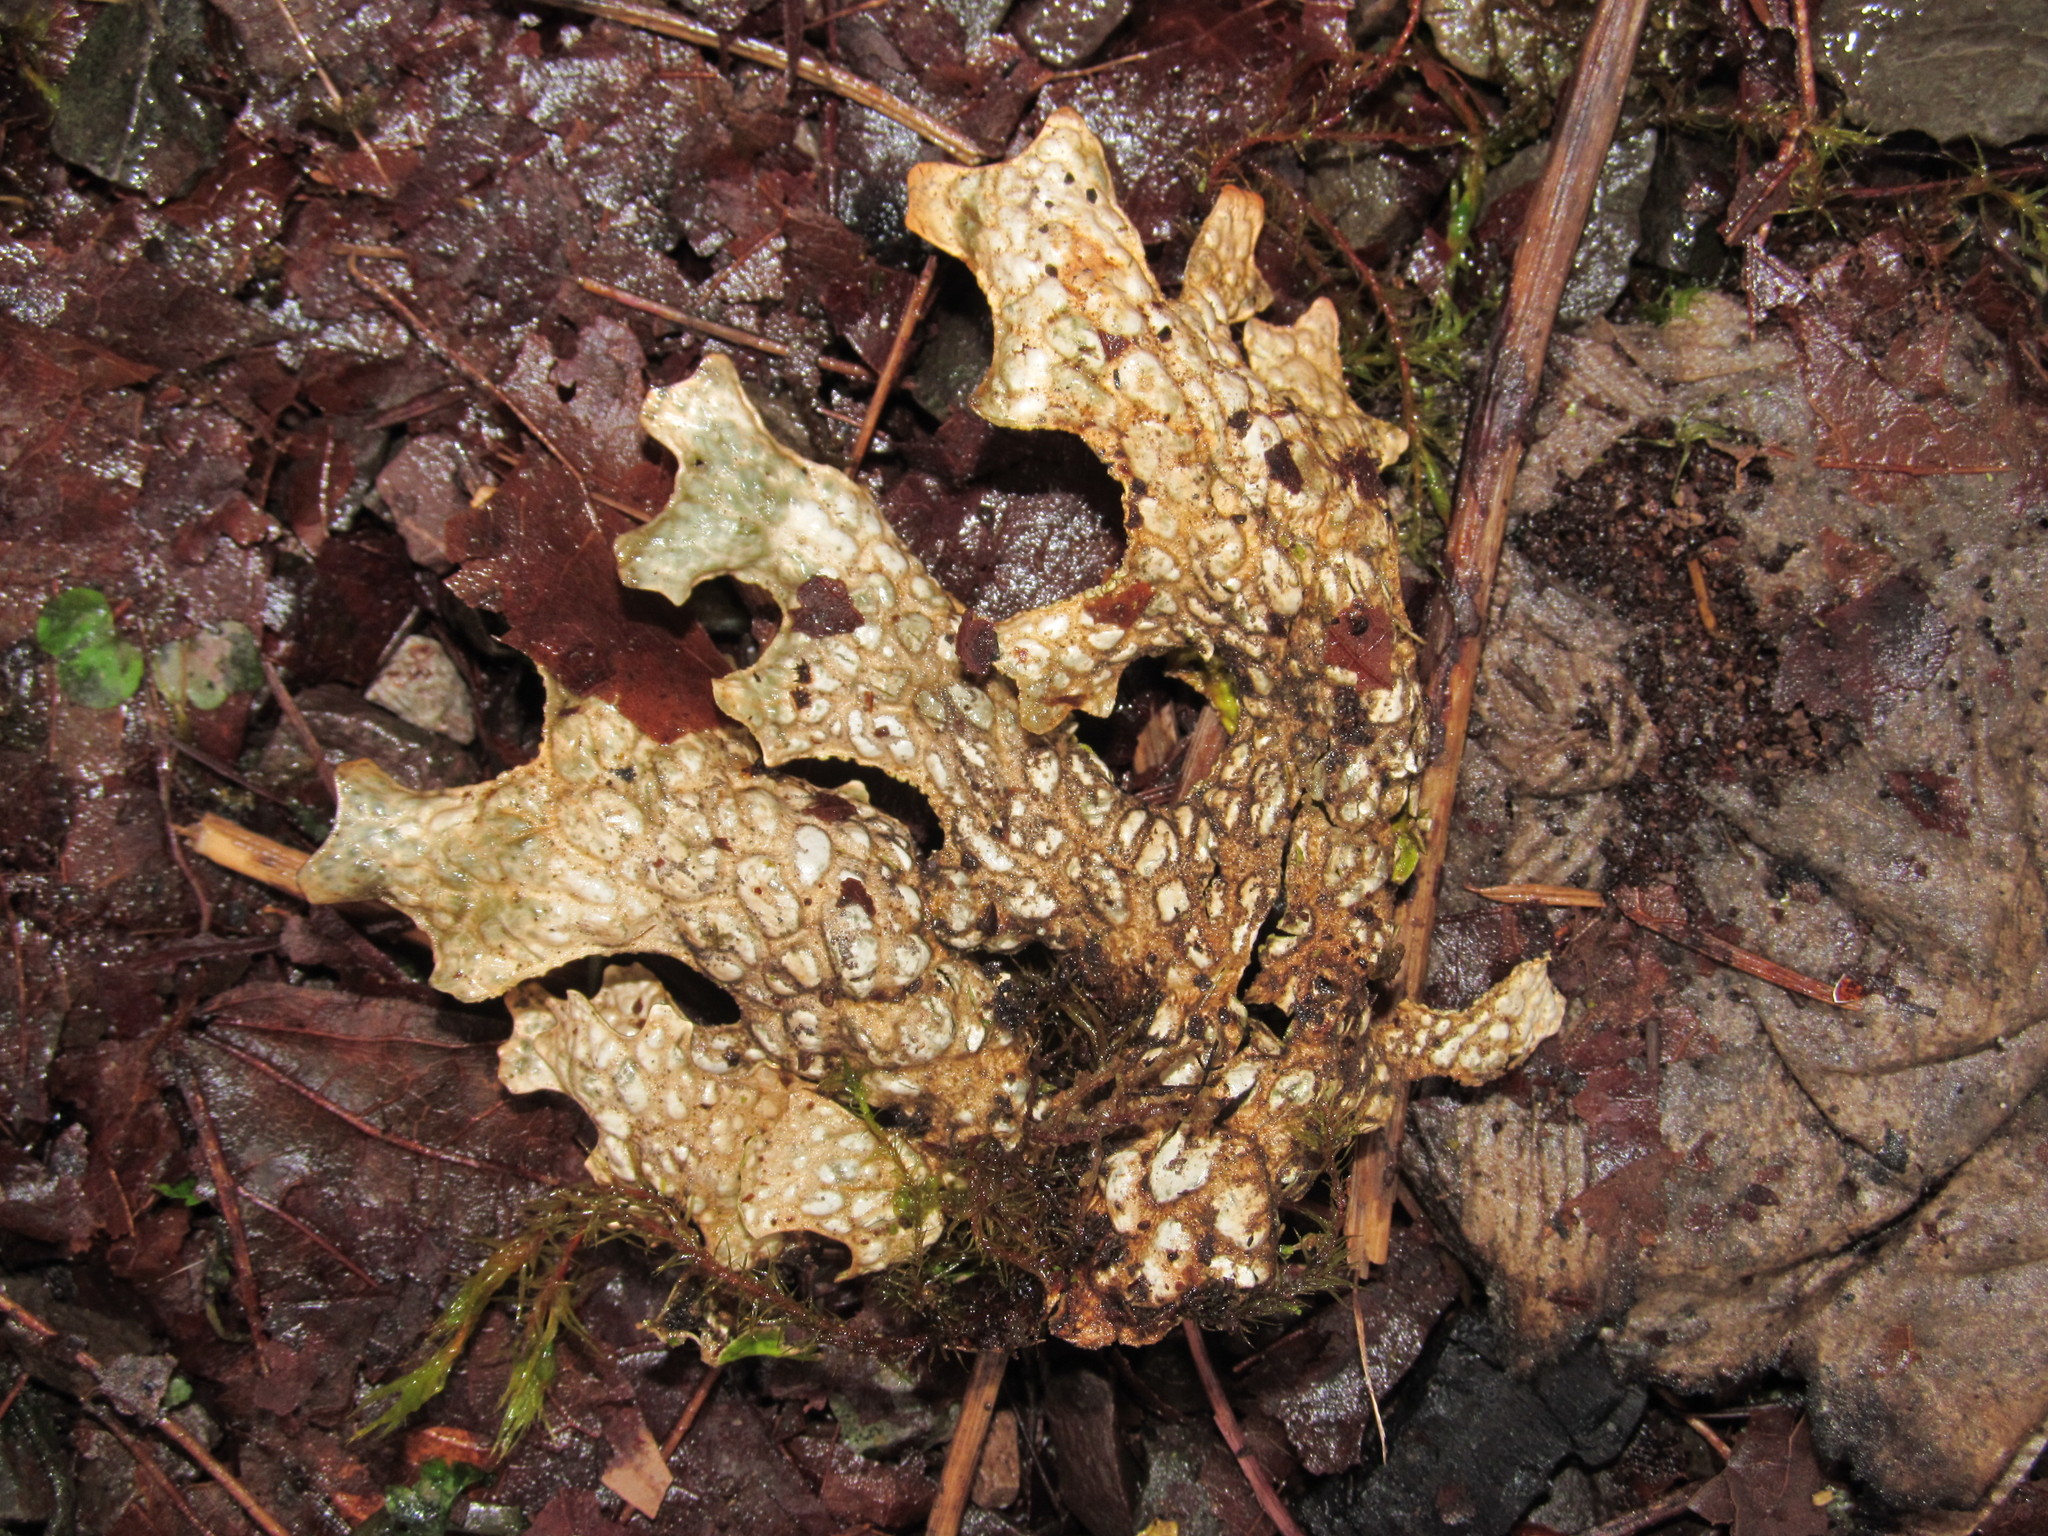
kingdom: Fungi
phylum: Ascomycota
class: Lecanoromycetes
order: Peltigerales
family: Lobariaceae
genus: Lobaria
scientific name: Lobaria pulmonaria
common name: Lungwort
